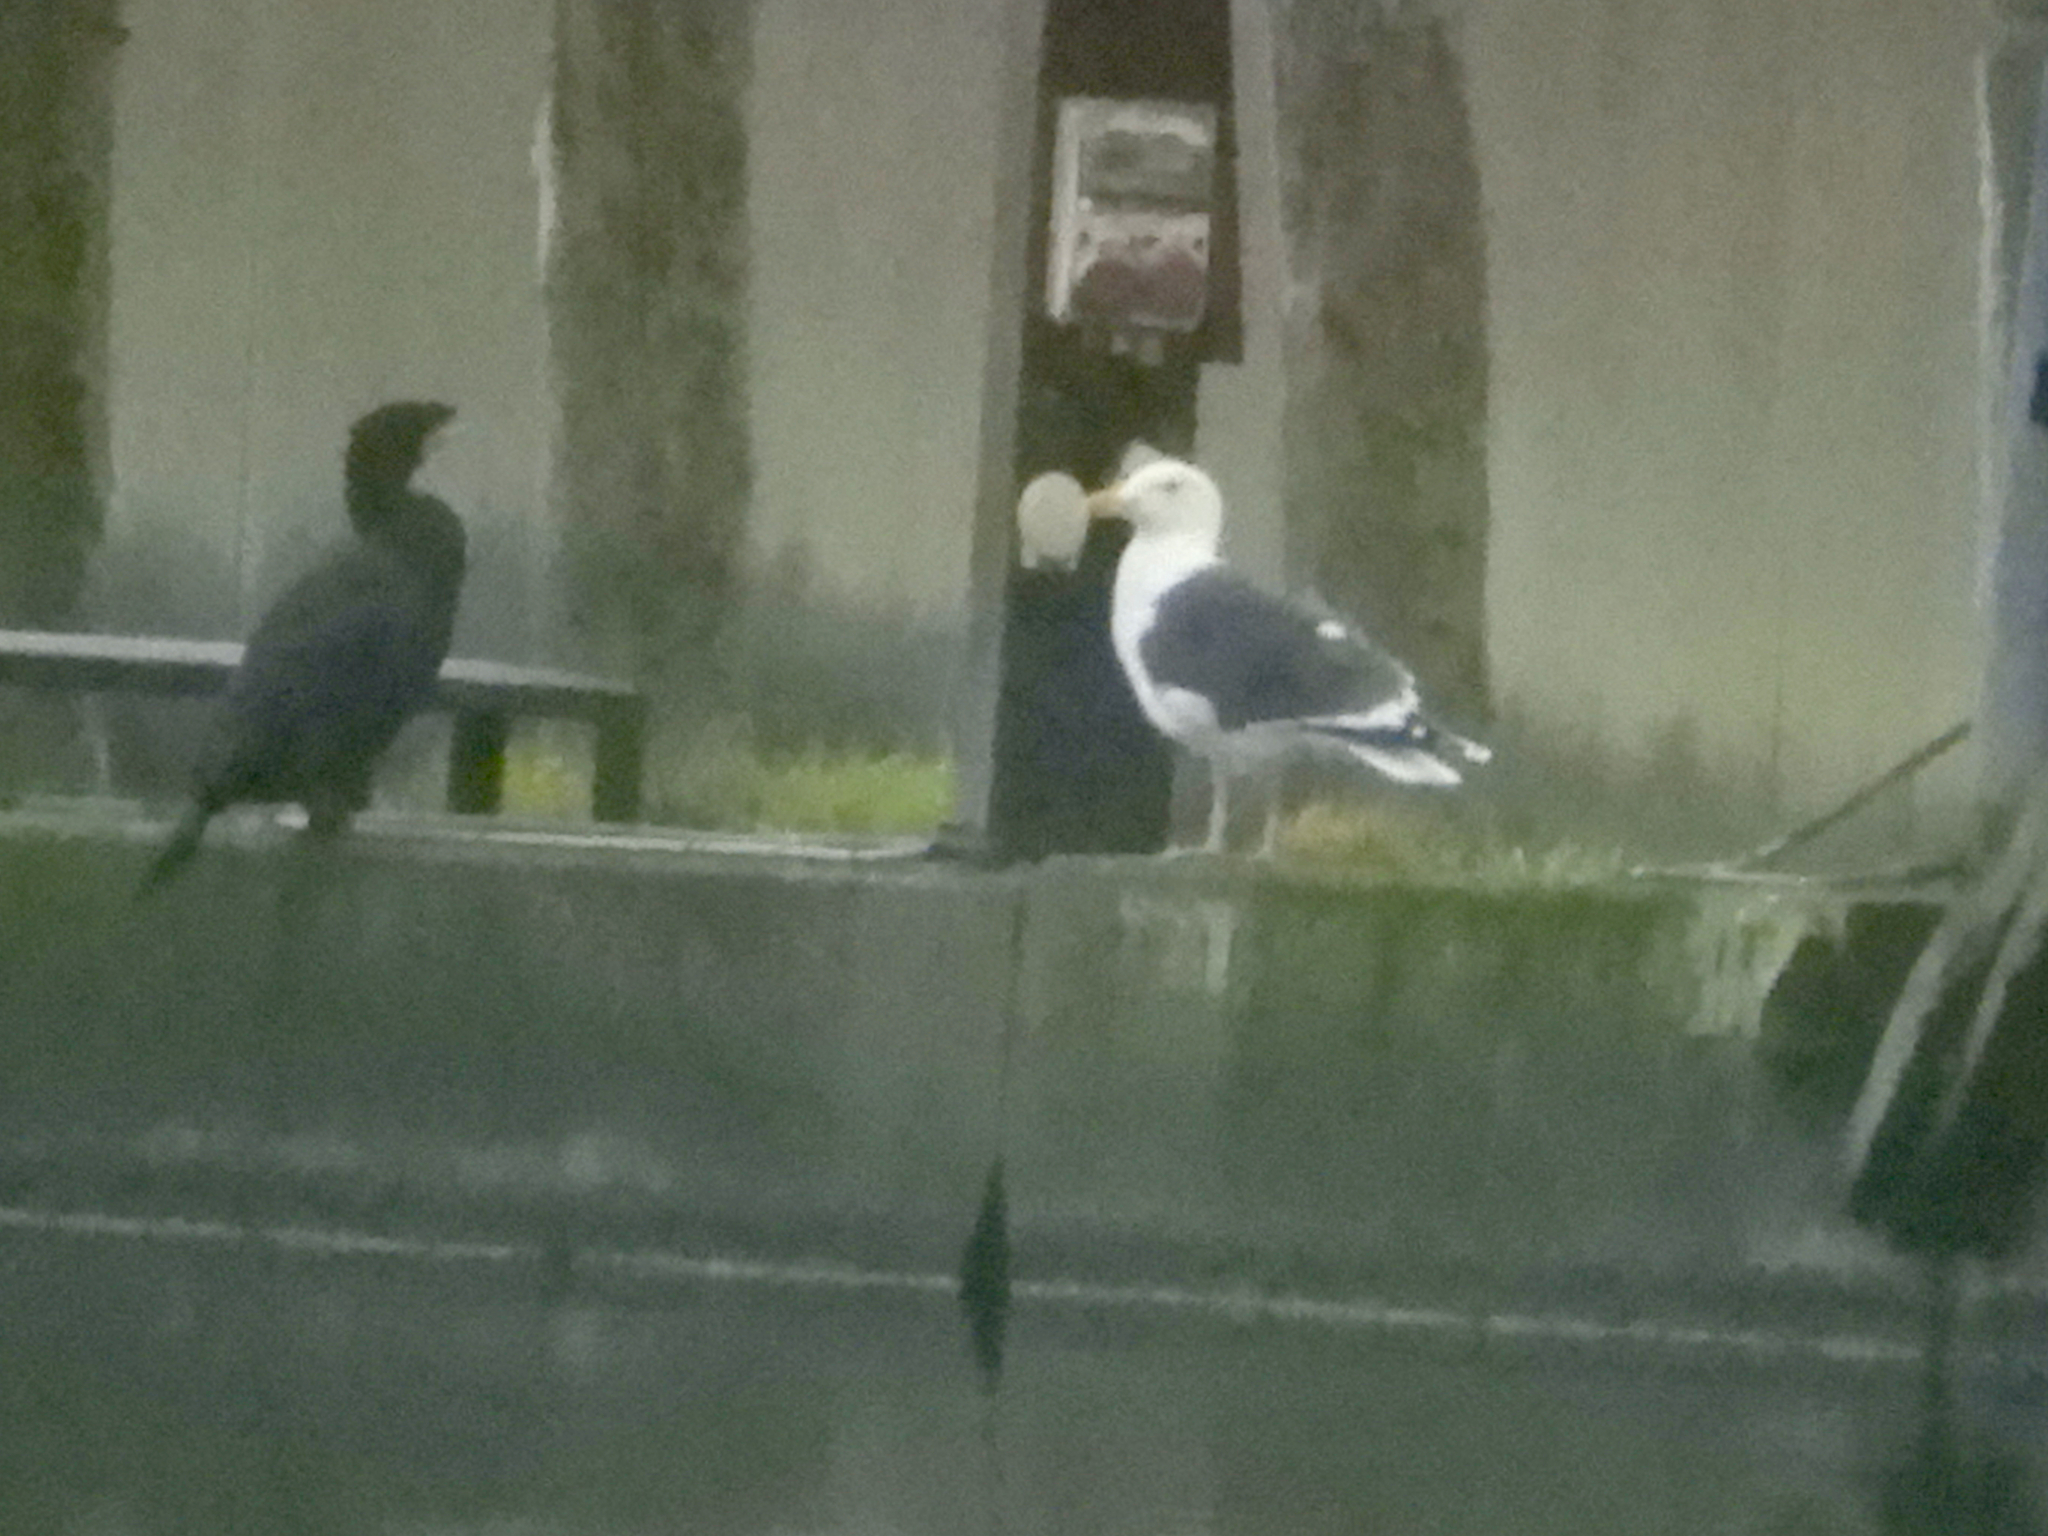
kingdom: Animalia
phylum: Chordata
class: Aves
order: Charadriiformes
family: Laridae
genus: Larus
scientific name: Larus marinus
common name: Great black-backed gull
